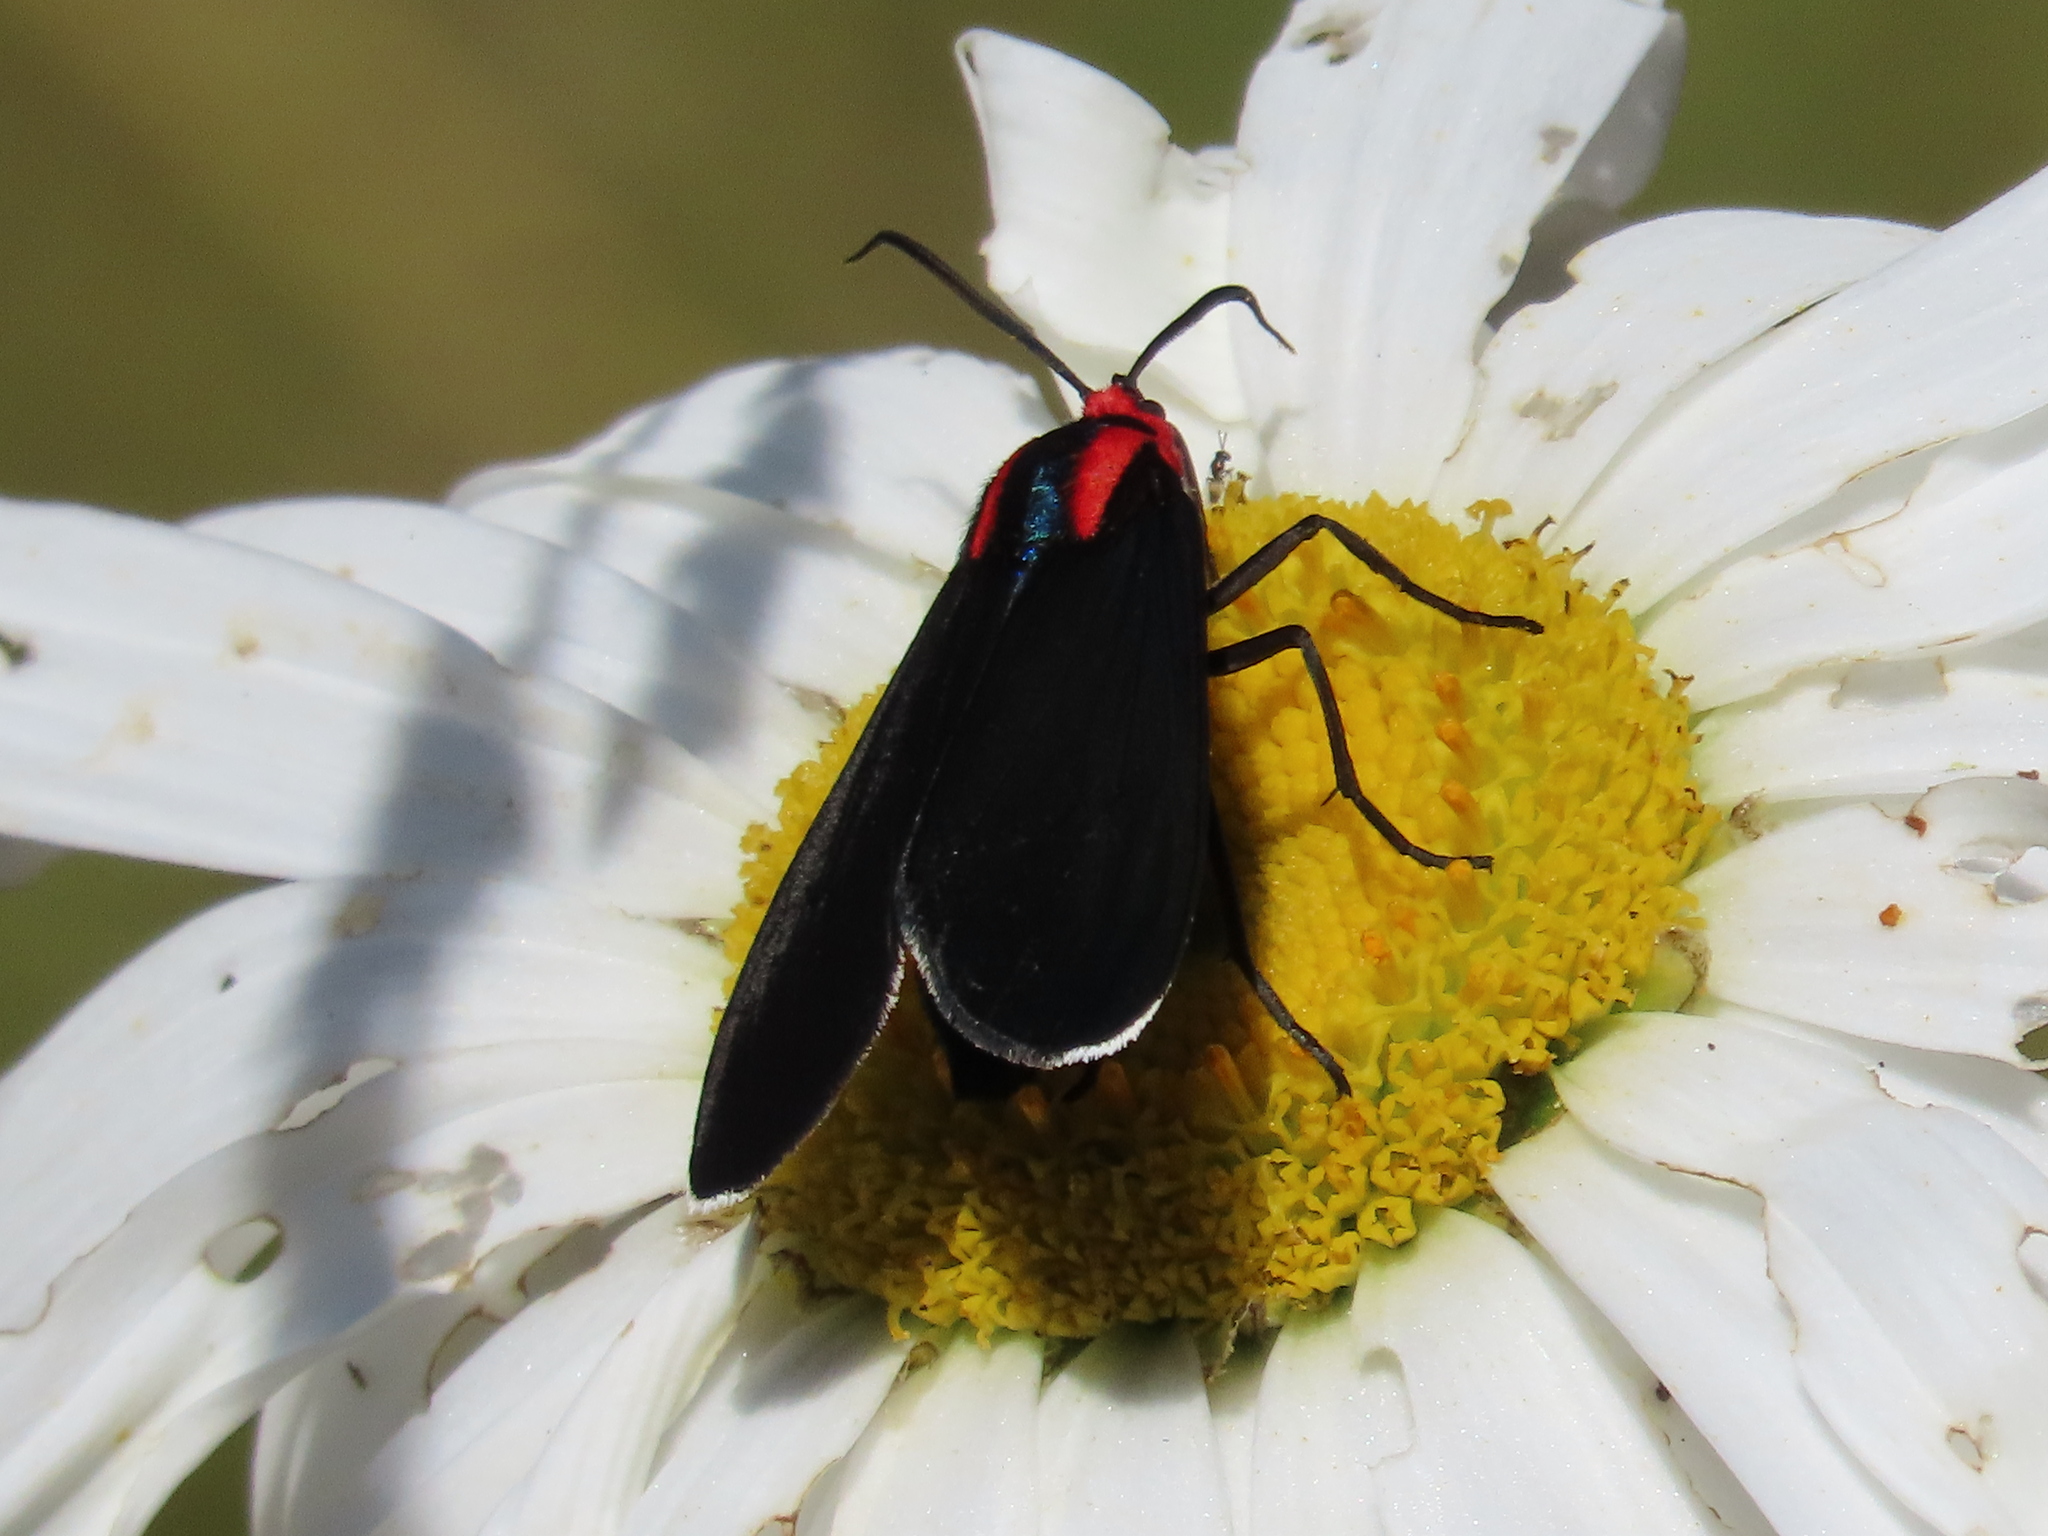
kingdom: Animalia
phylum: Arthropoda
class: Insecta
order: Lepidoptera
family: Erebidae
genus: Ctenucha
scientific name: Ctenucha rubroscapus
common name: Red-shouldered ctenucha
